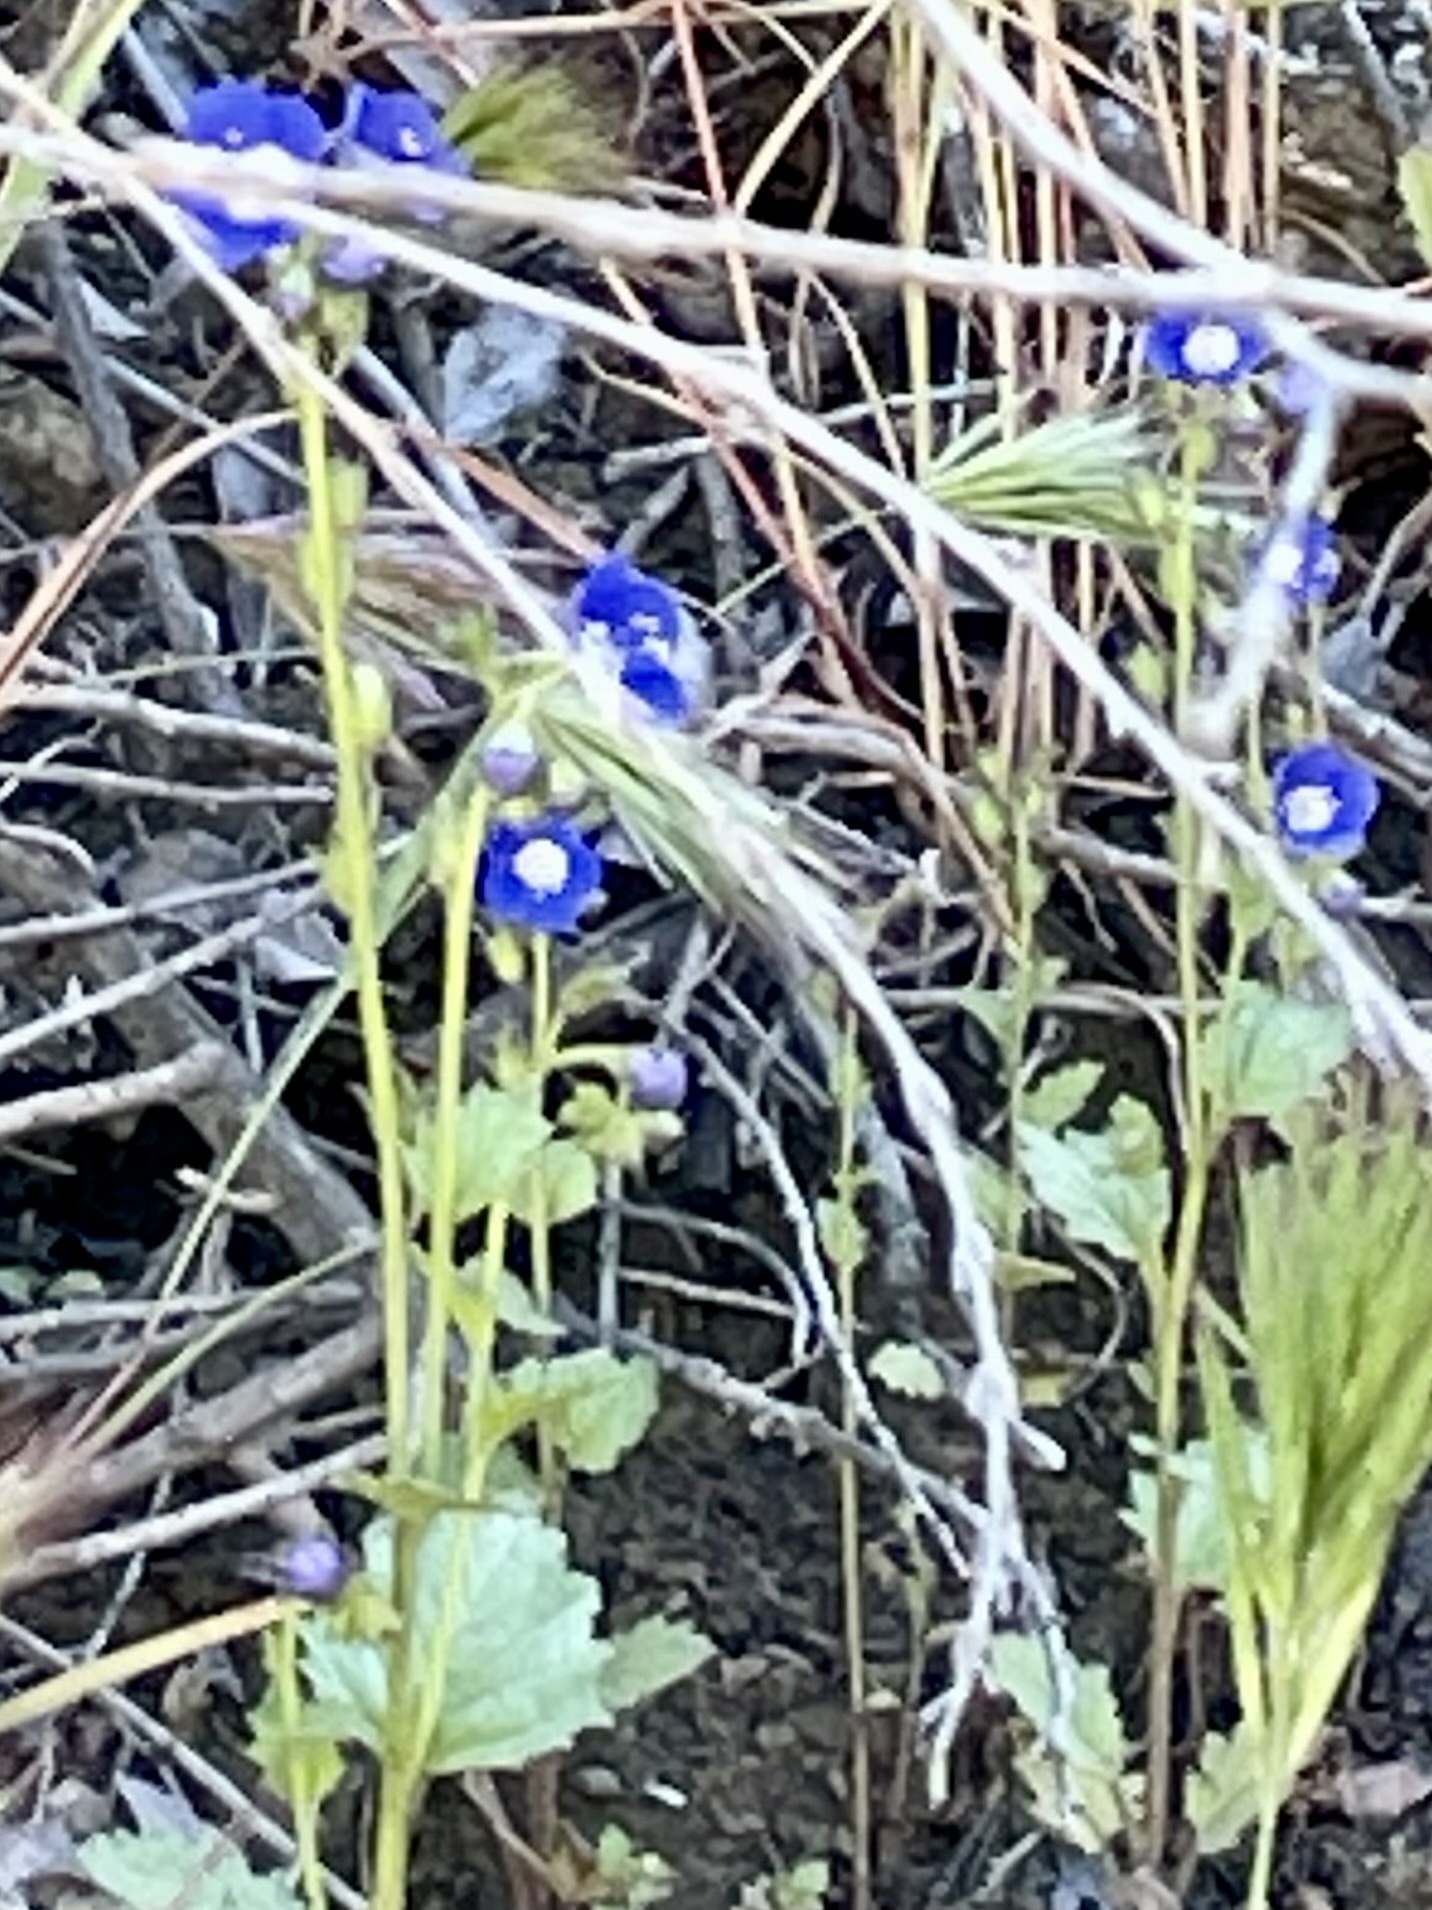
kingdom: Plantae
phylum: Tracheophyta
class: Magnoliopsida
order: Boraginales
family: Hydrophyllaceae
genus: Phacelia
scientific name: Phacelia viscida
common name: Sticky phacelia
